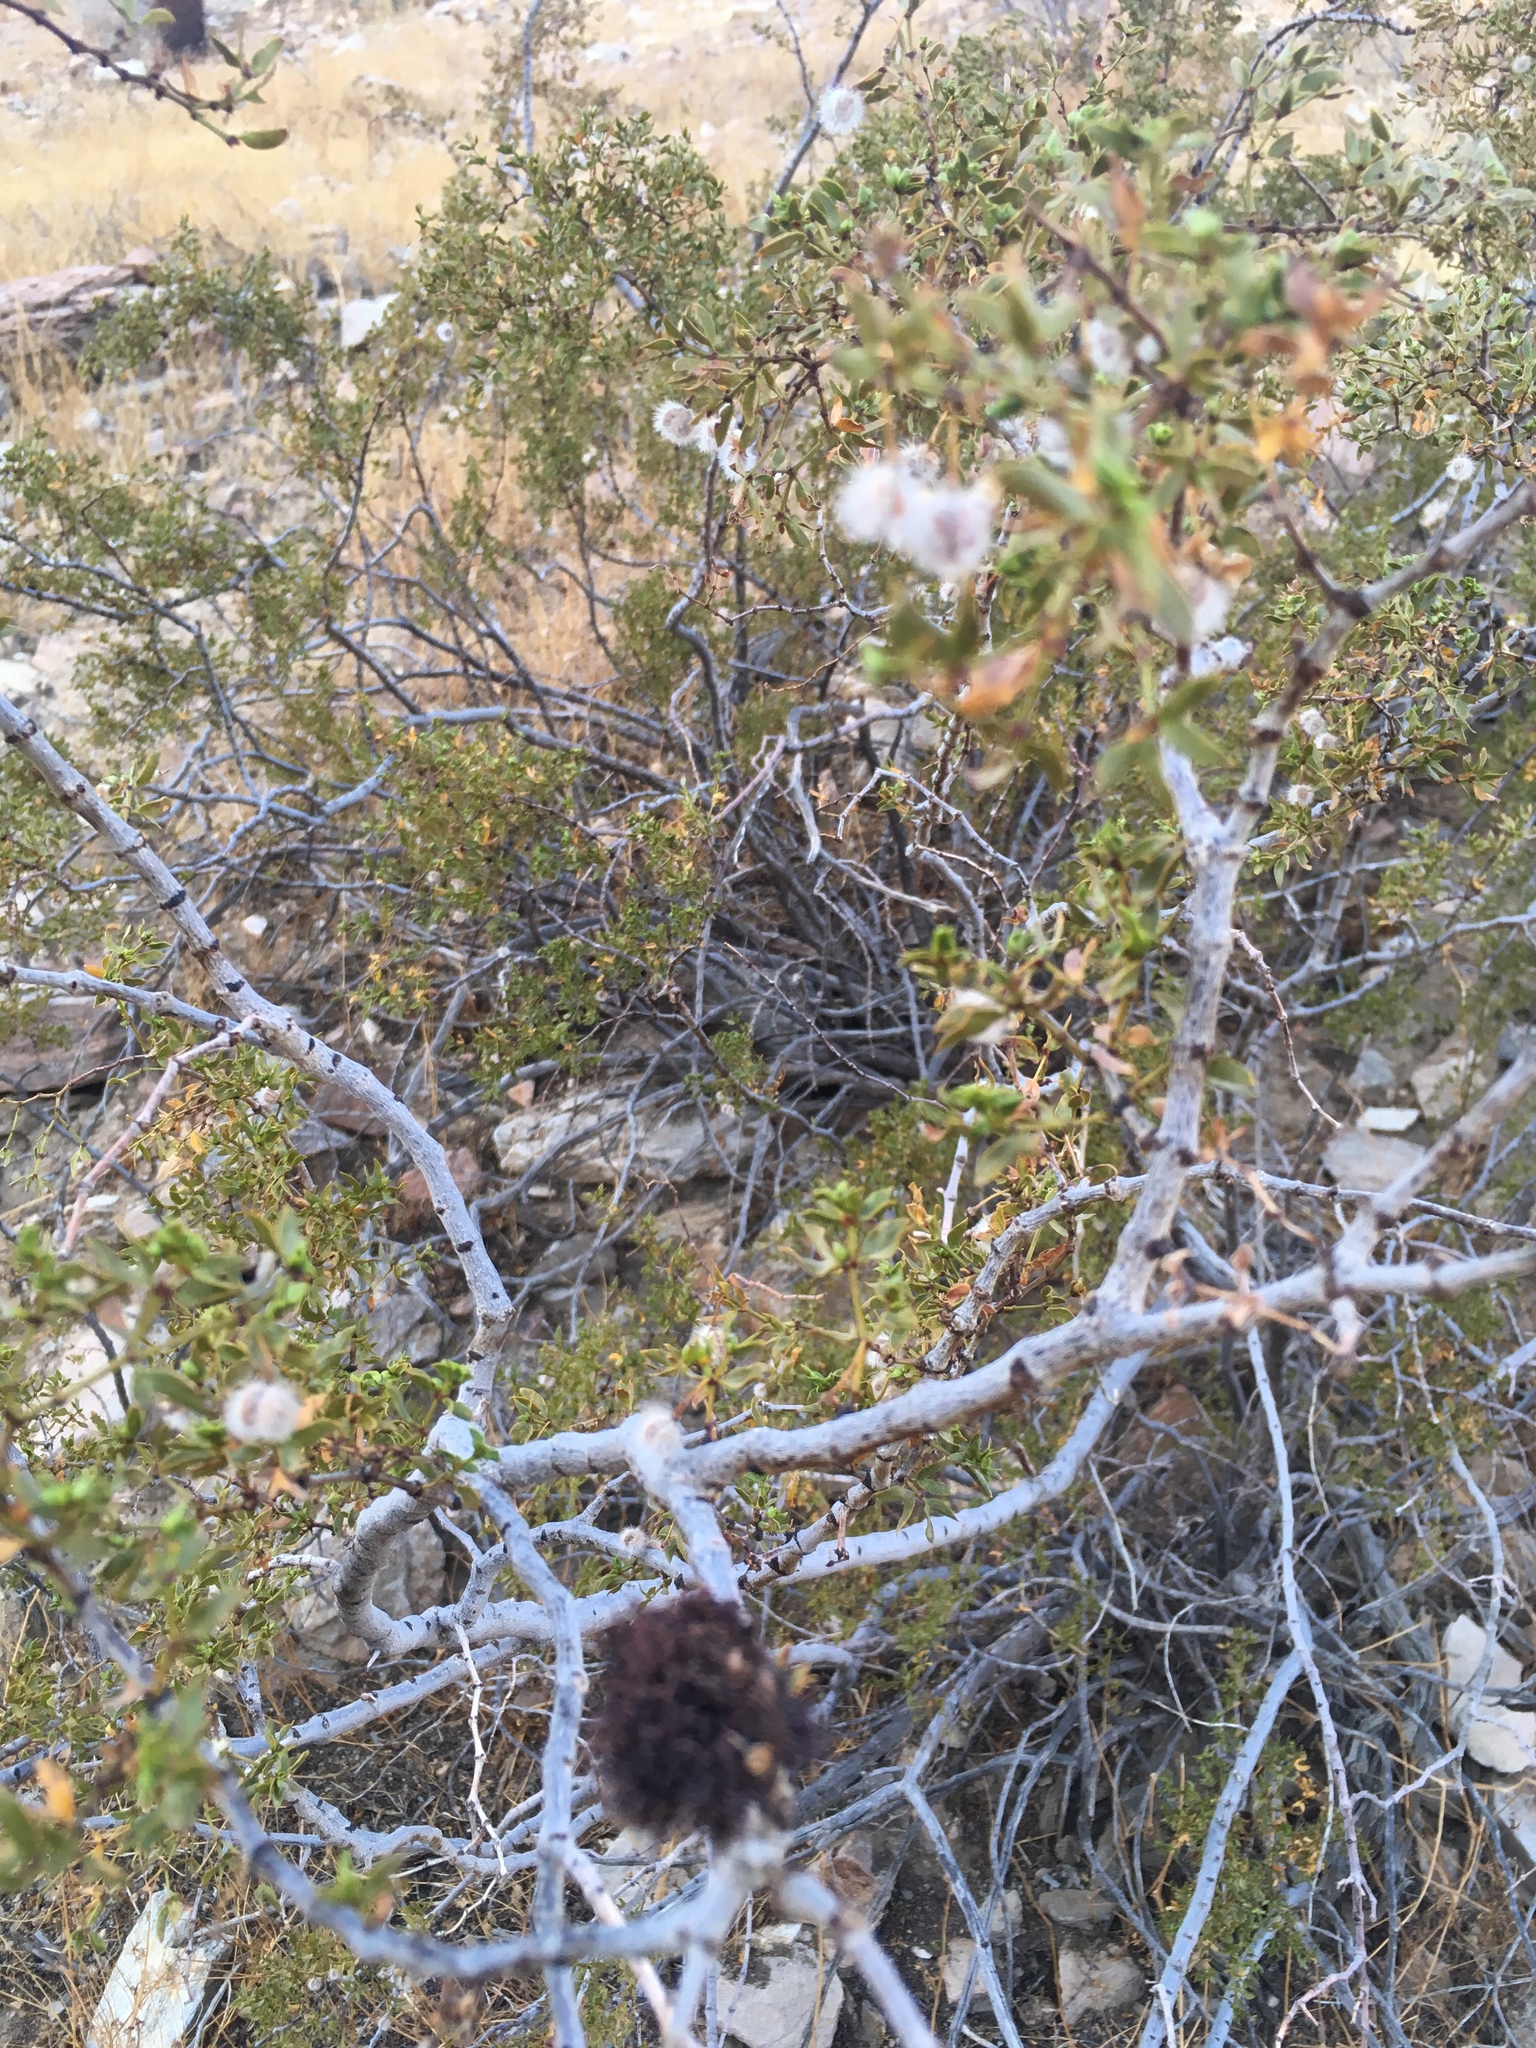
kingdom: Animalia
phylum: Arthropoda
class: Insecta
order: Diptera
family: Cecidomyiidae
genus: Asphondylia
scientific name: Asphondylia auripila
